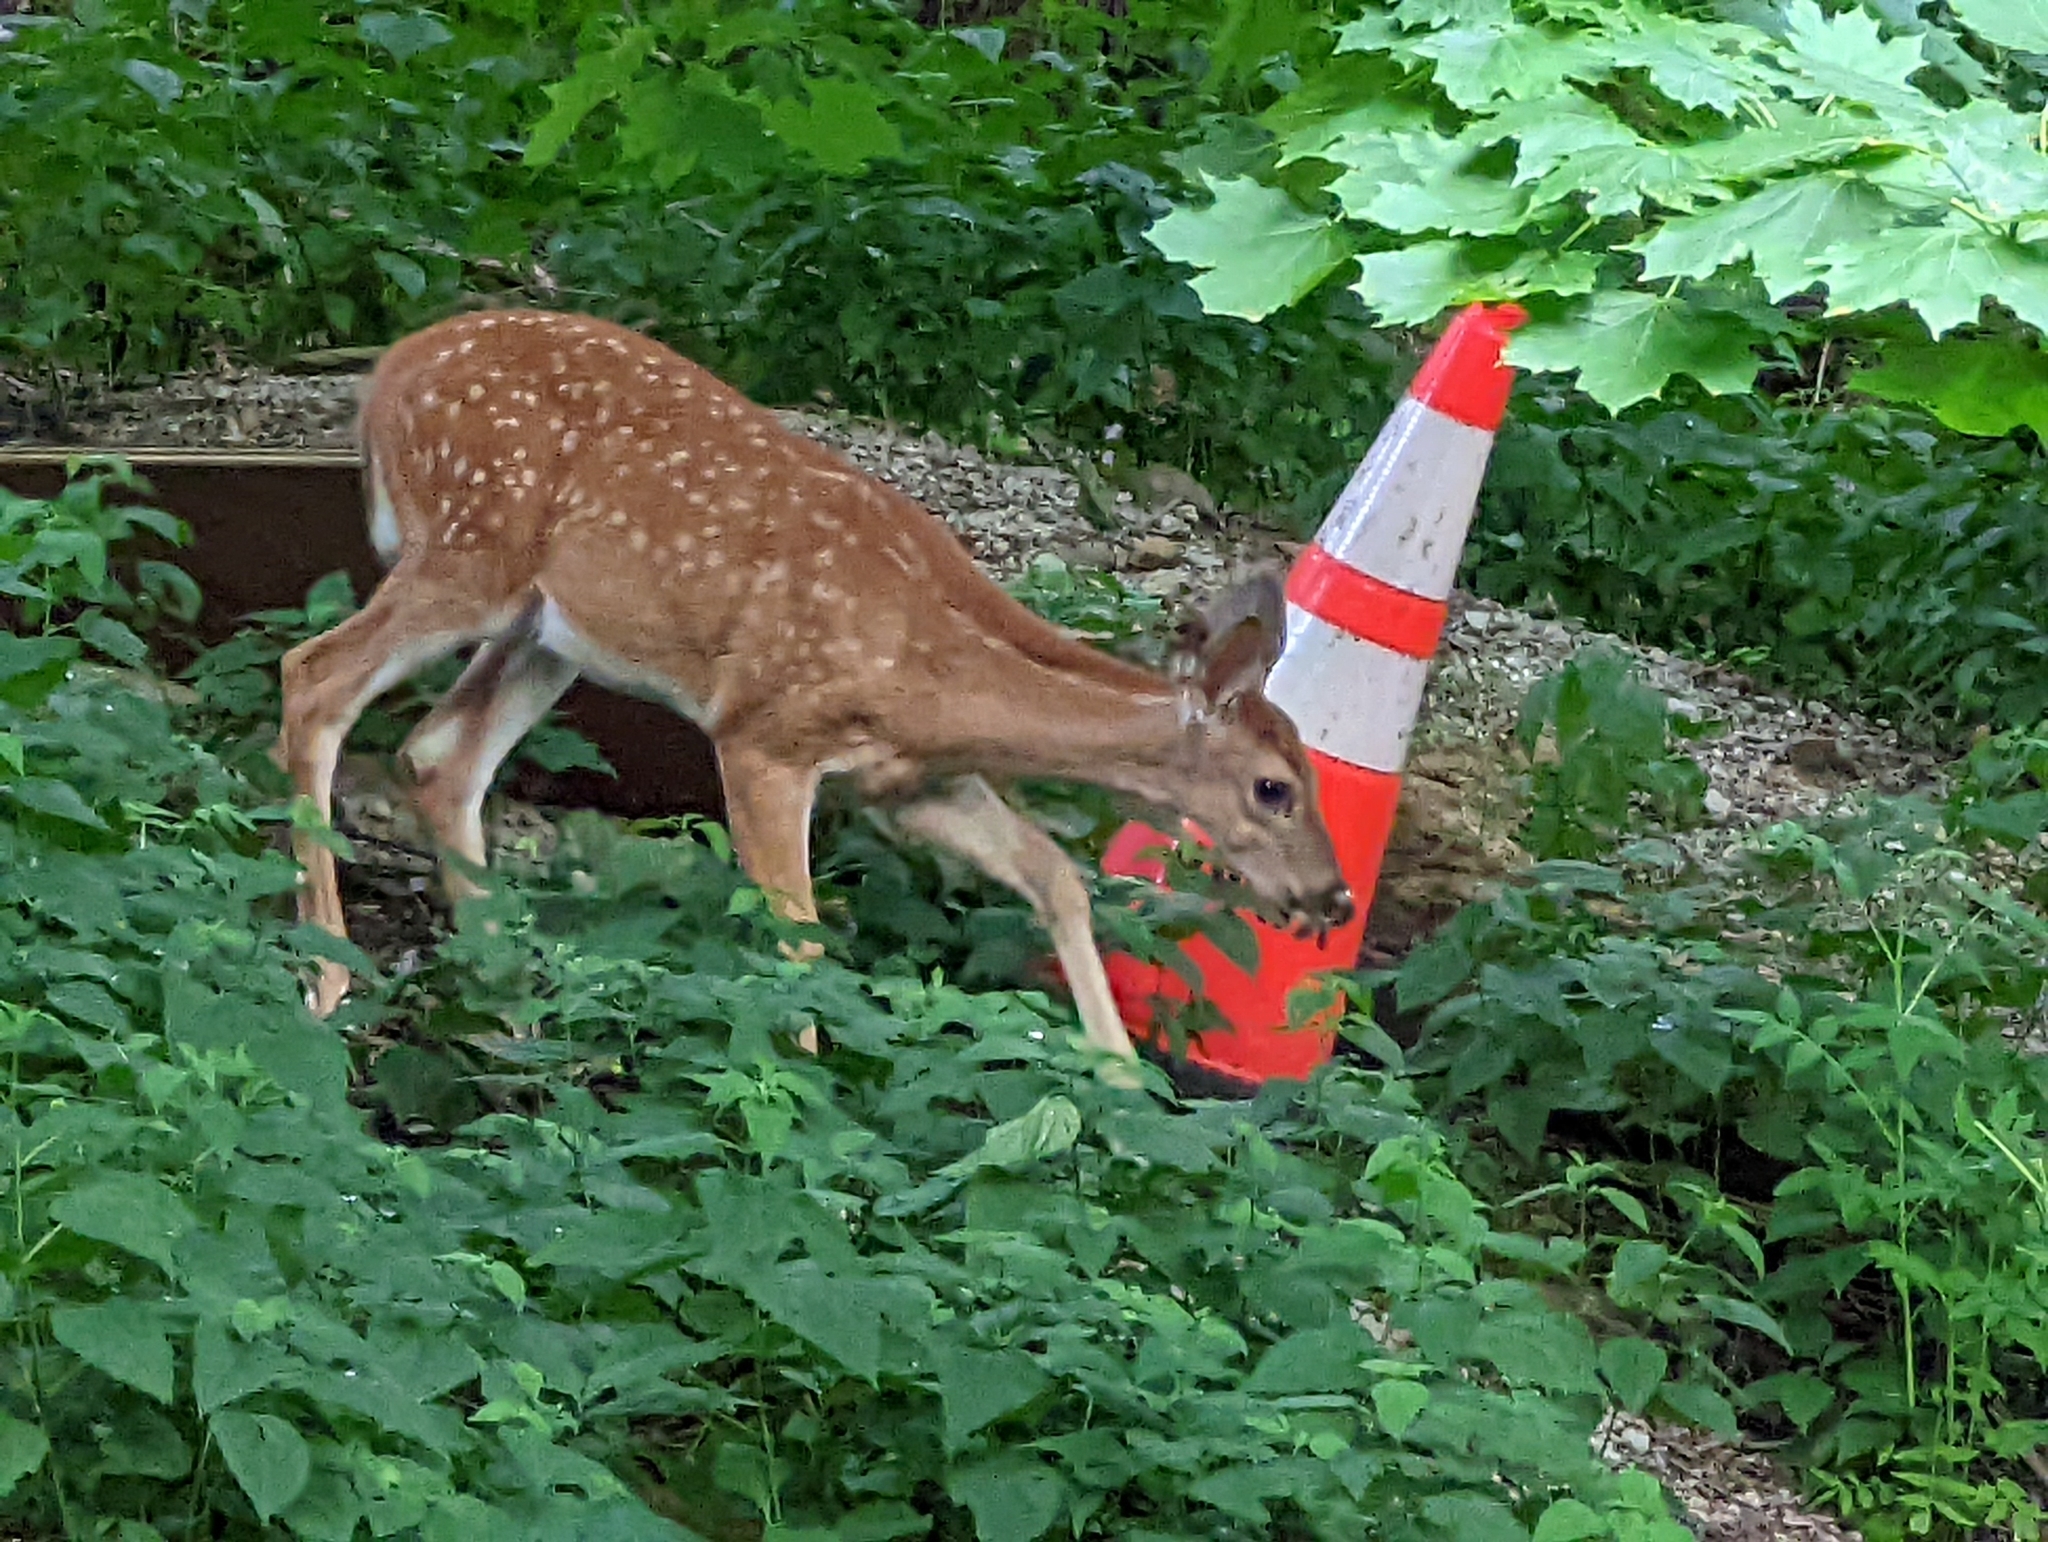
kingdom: Animalia
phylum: Chordata
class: Mammalia
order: Artiodactyla
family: Cervidae
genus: Odocoileus
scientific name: Odocoileus virginianus
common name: White-tailed deer
